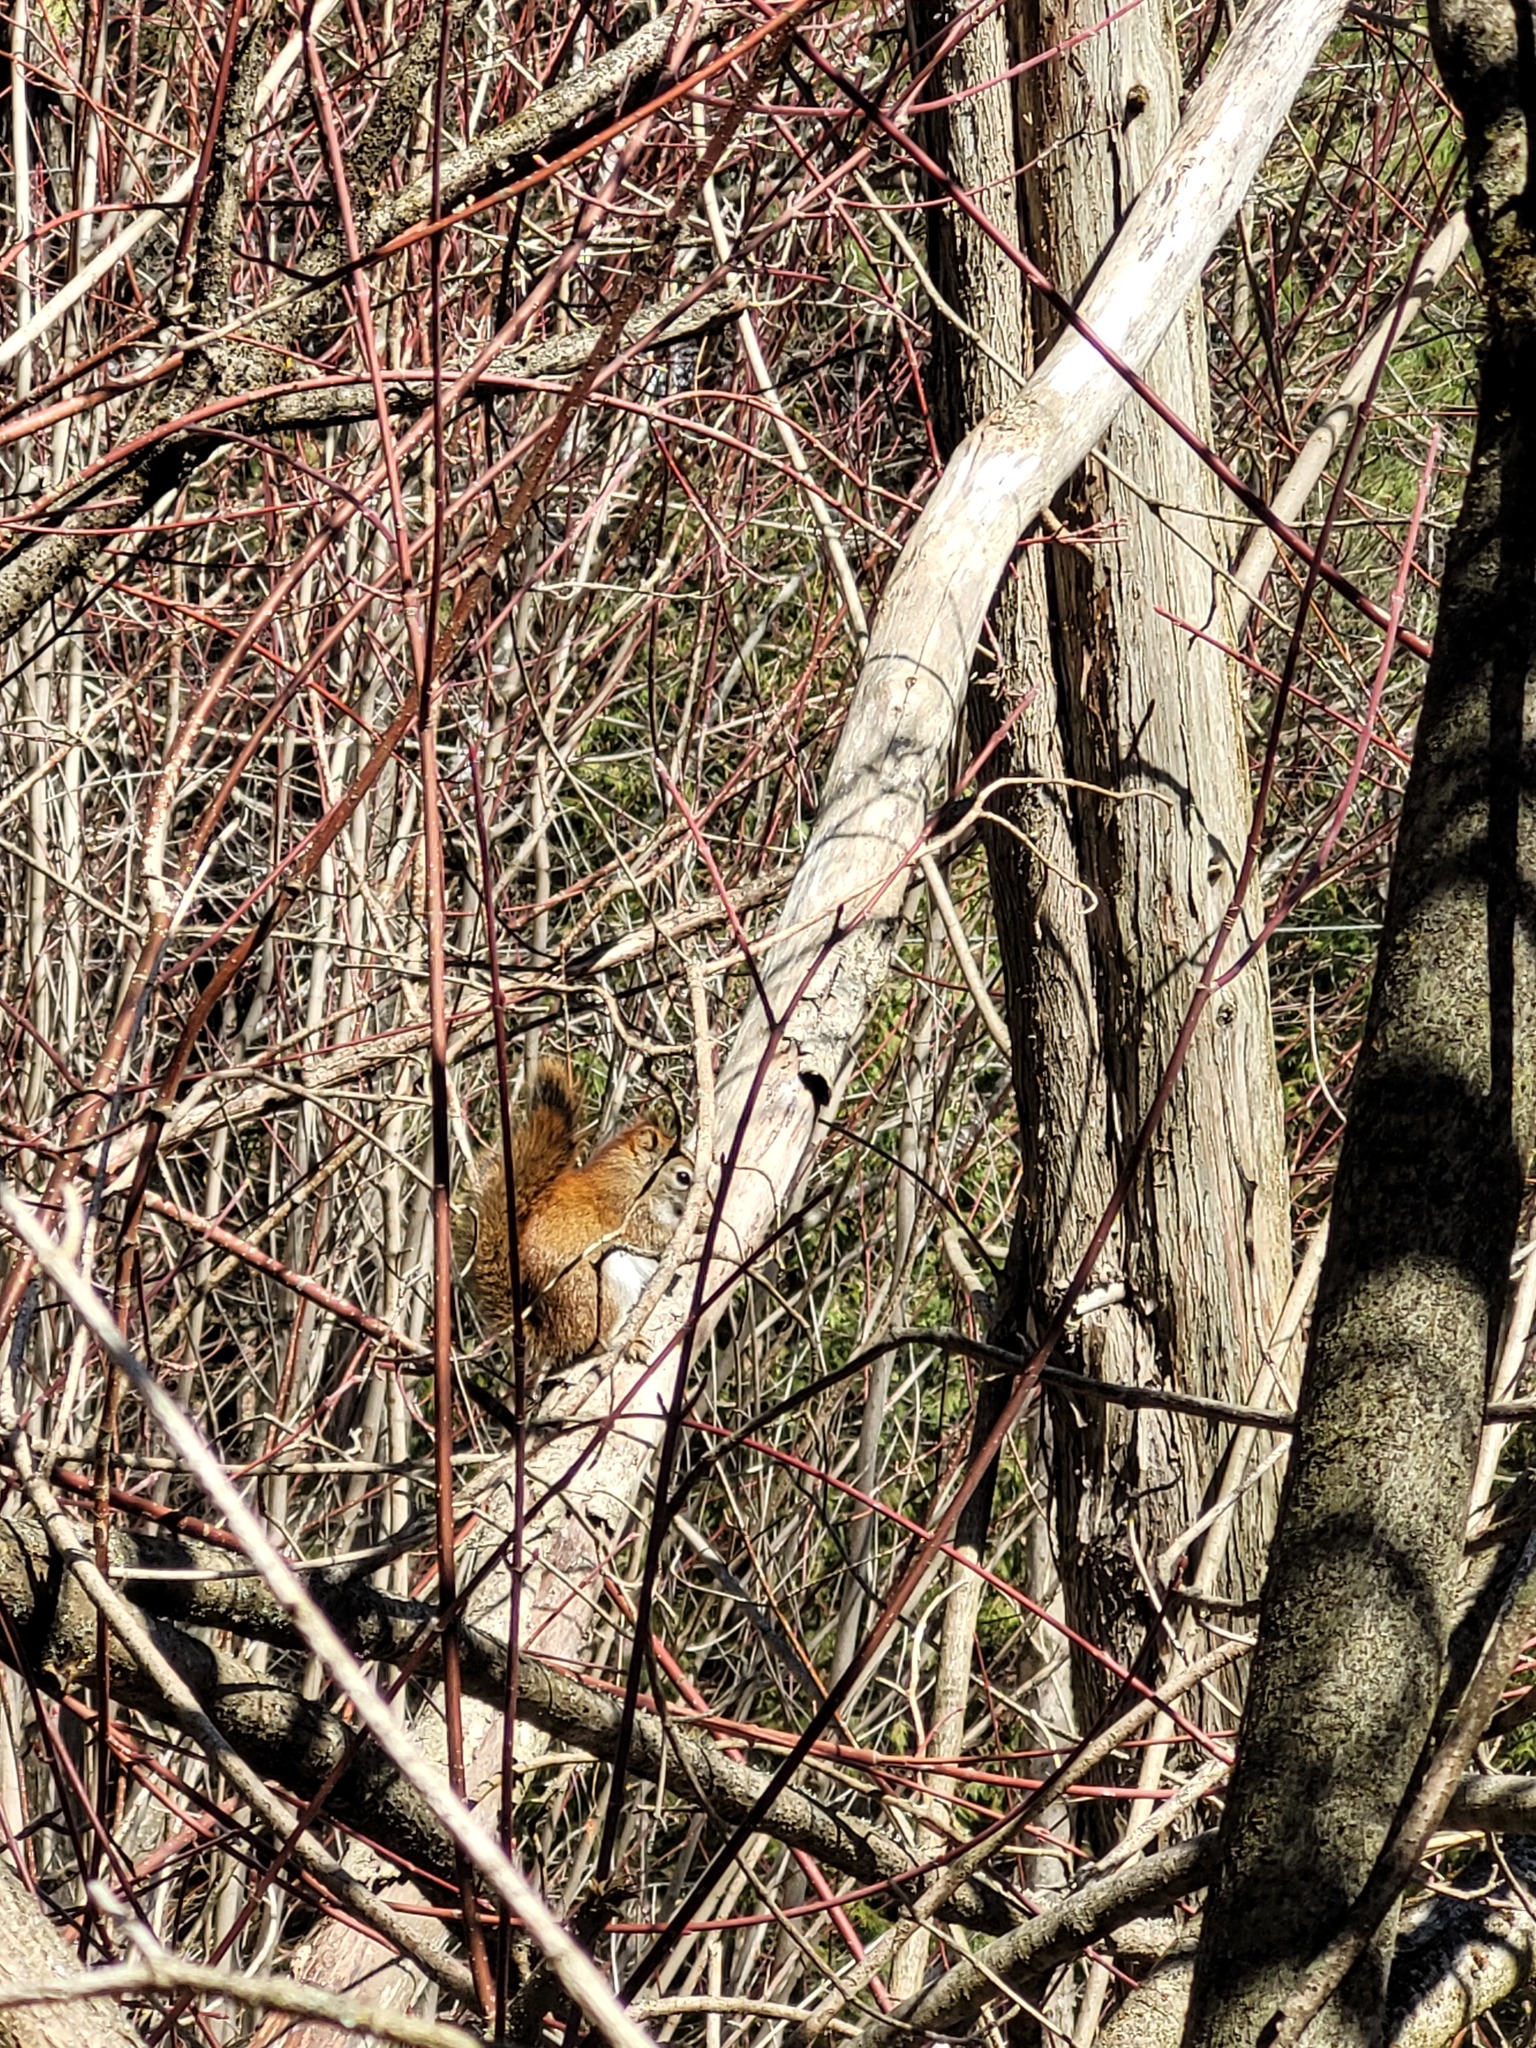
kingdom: Animalia
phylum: Chordata
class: Mammalia
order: Rodentia
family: Sciuridae
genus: Tamiasciurus
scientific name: Tamiasciurus hudsonicus
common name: Red squirrel
